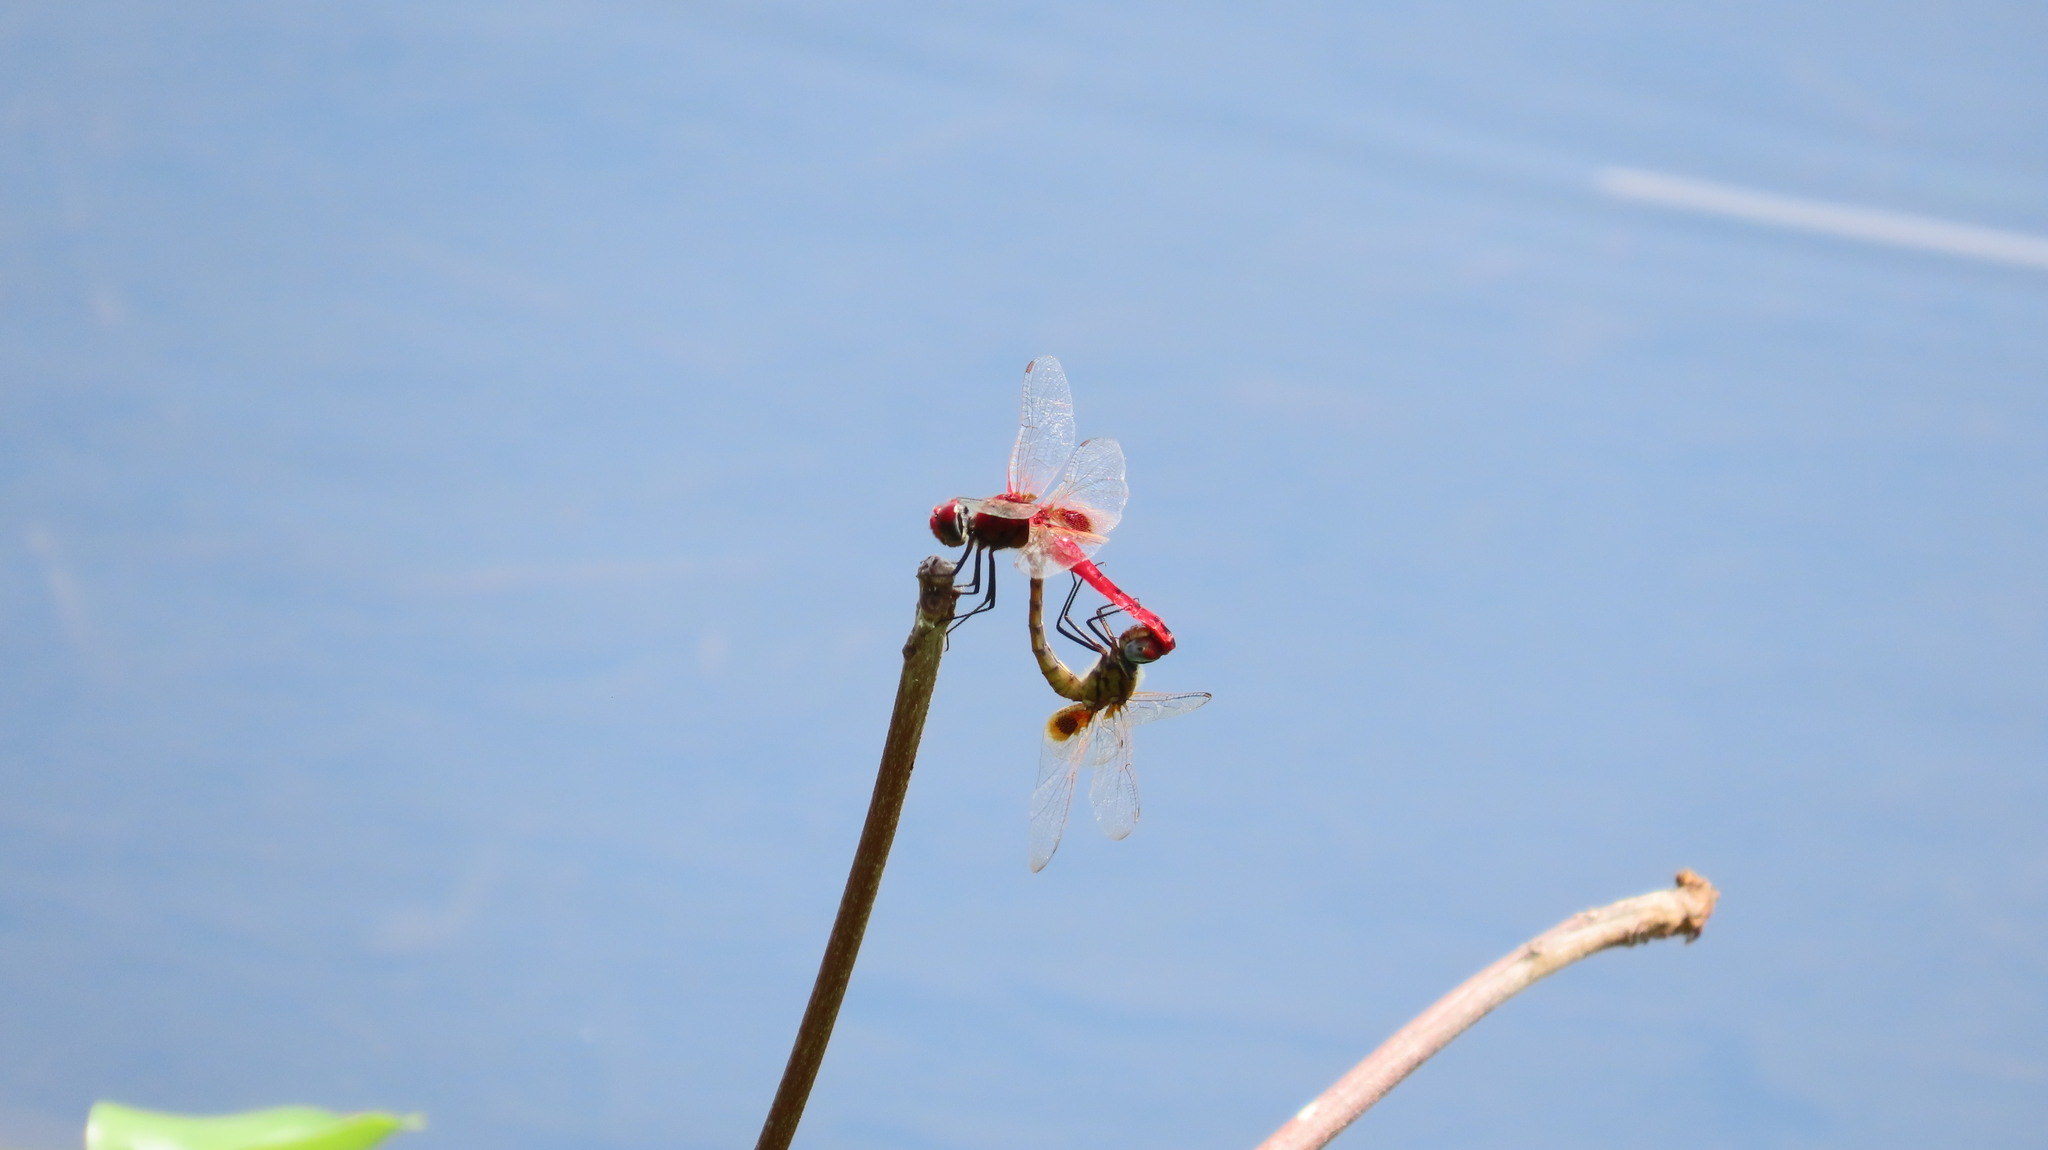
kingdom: Animalia
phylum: Arthropoda
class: Insecta
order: Odonata
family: Libellulidae
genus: Urothemis
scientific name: Urothemis signata
